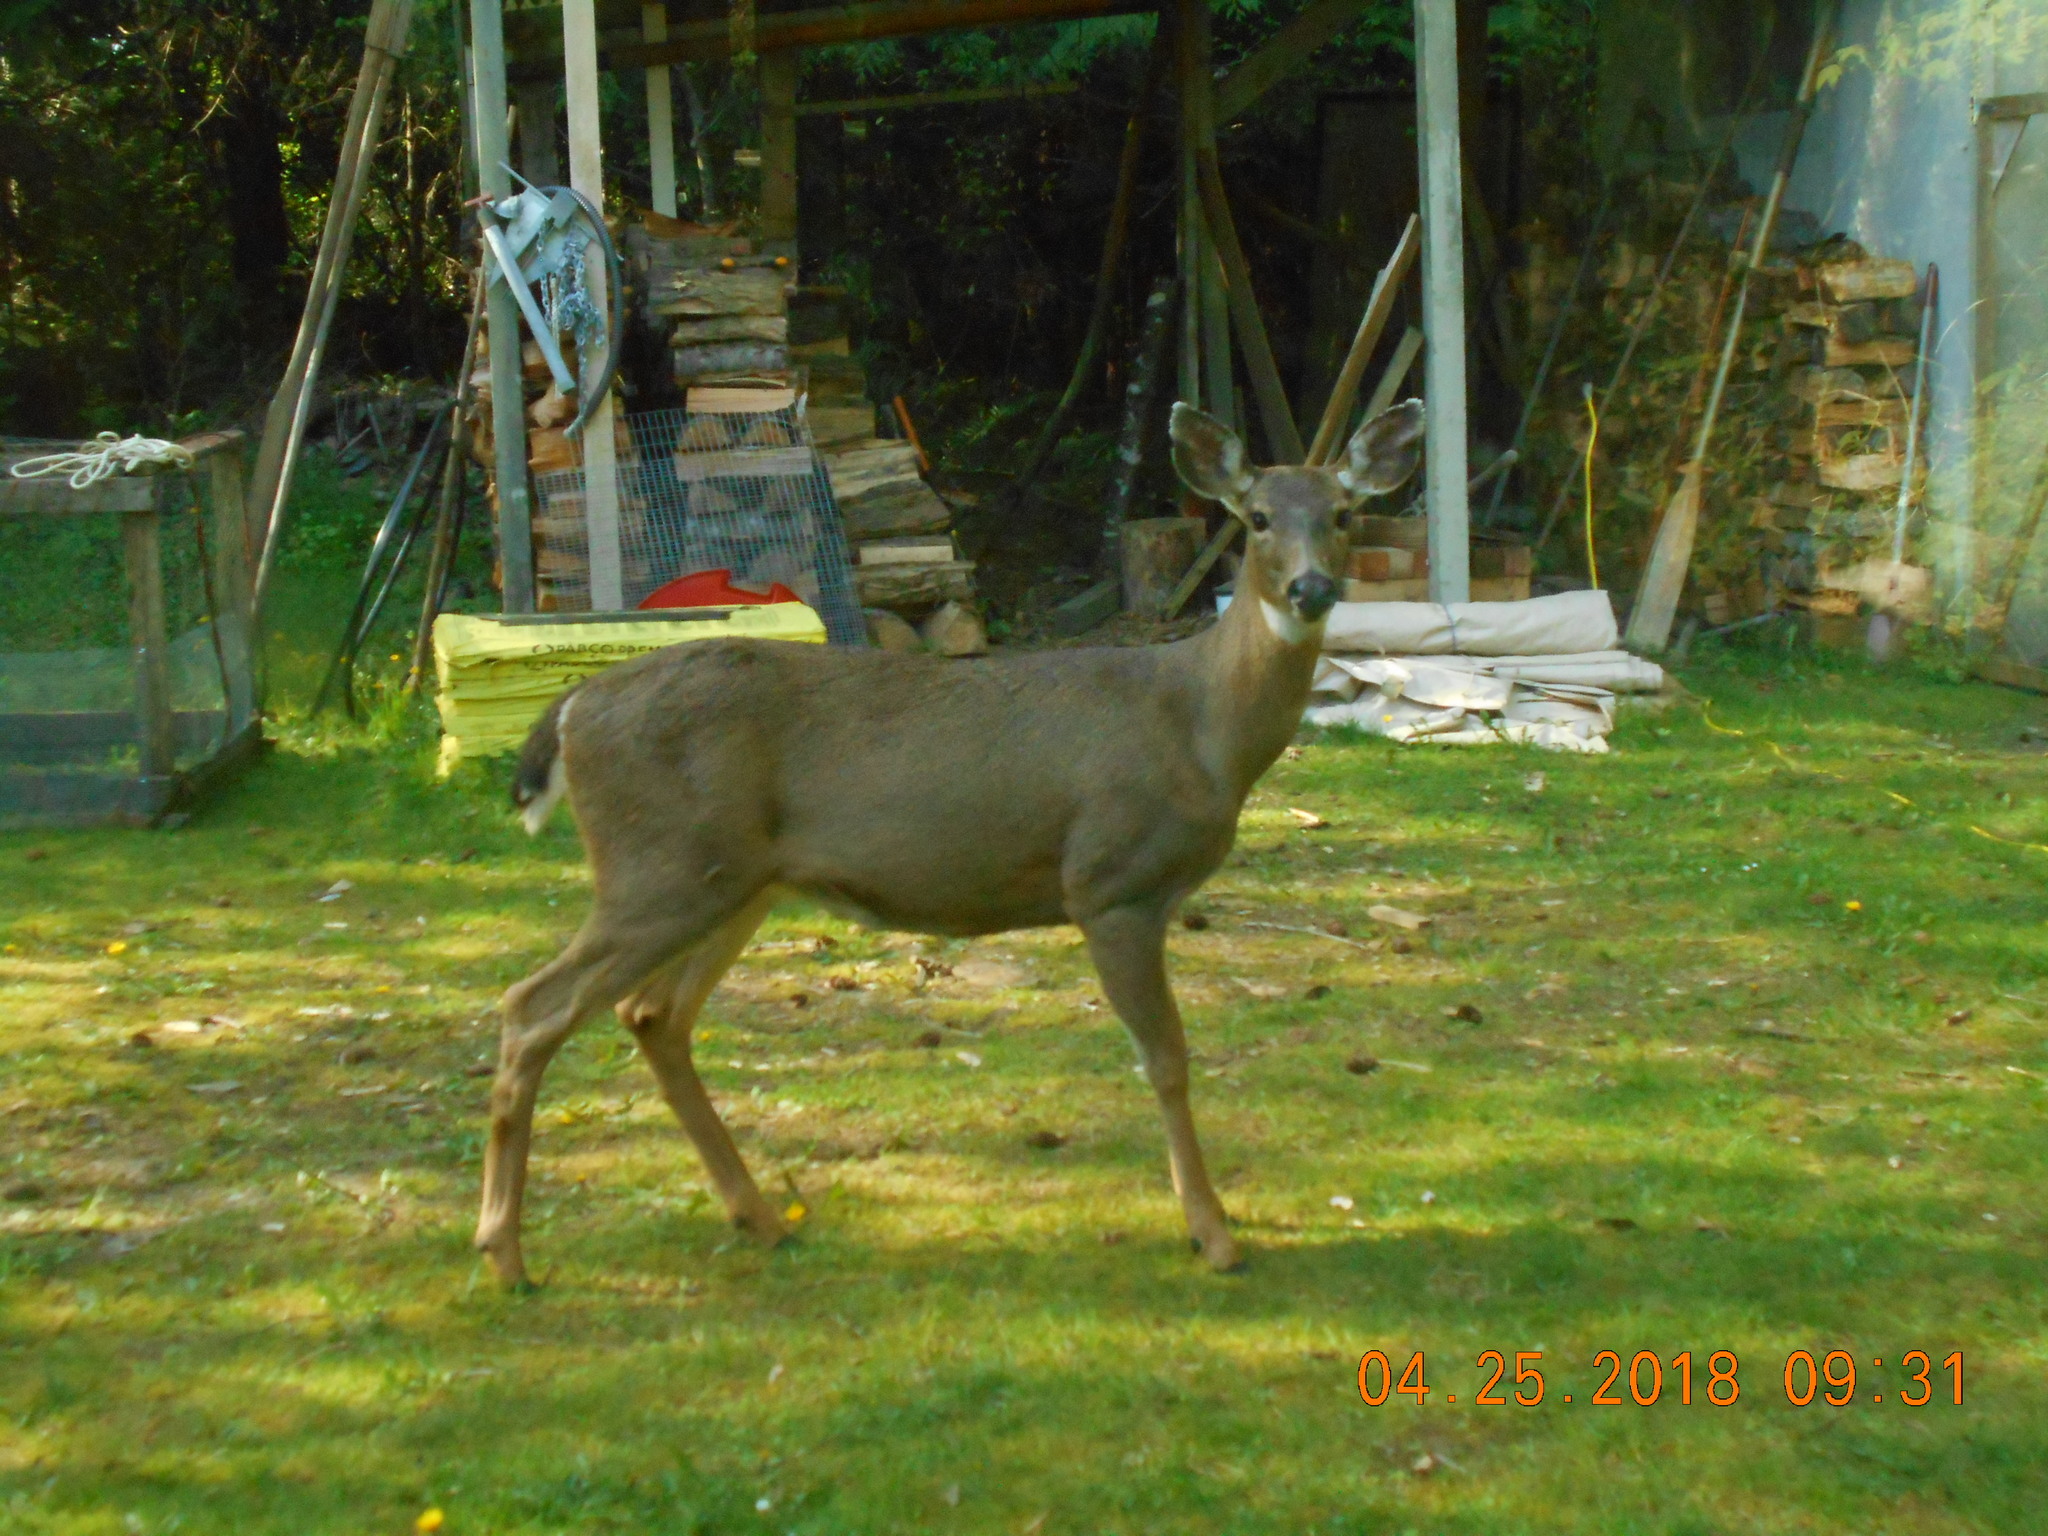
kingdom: Animalia
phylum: Chordata
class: Mammalia
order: Artiodactyla
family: Cervidae
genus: Odocoileus
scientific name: Odocoileus hemionus
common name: Mule deer
